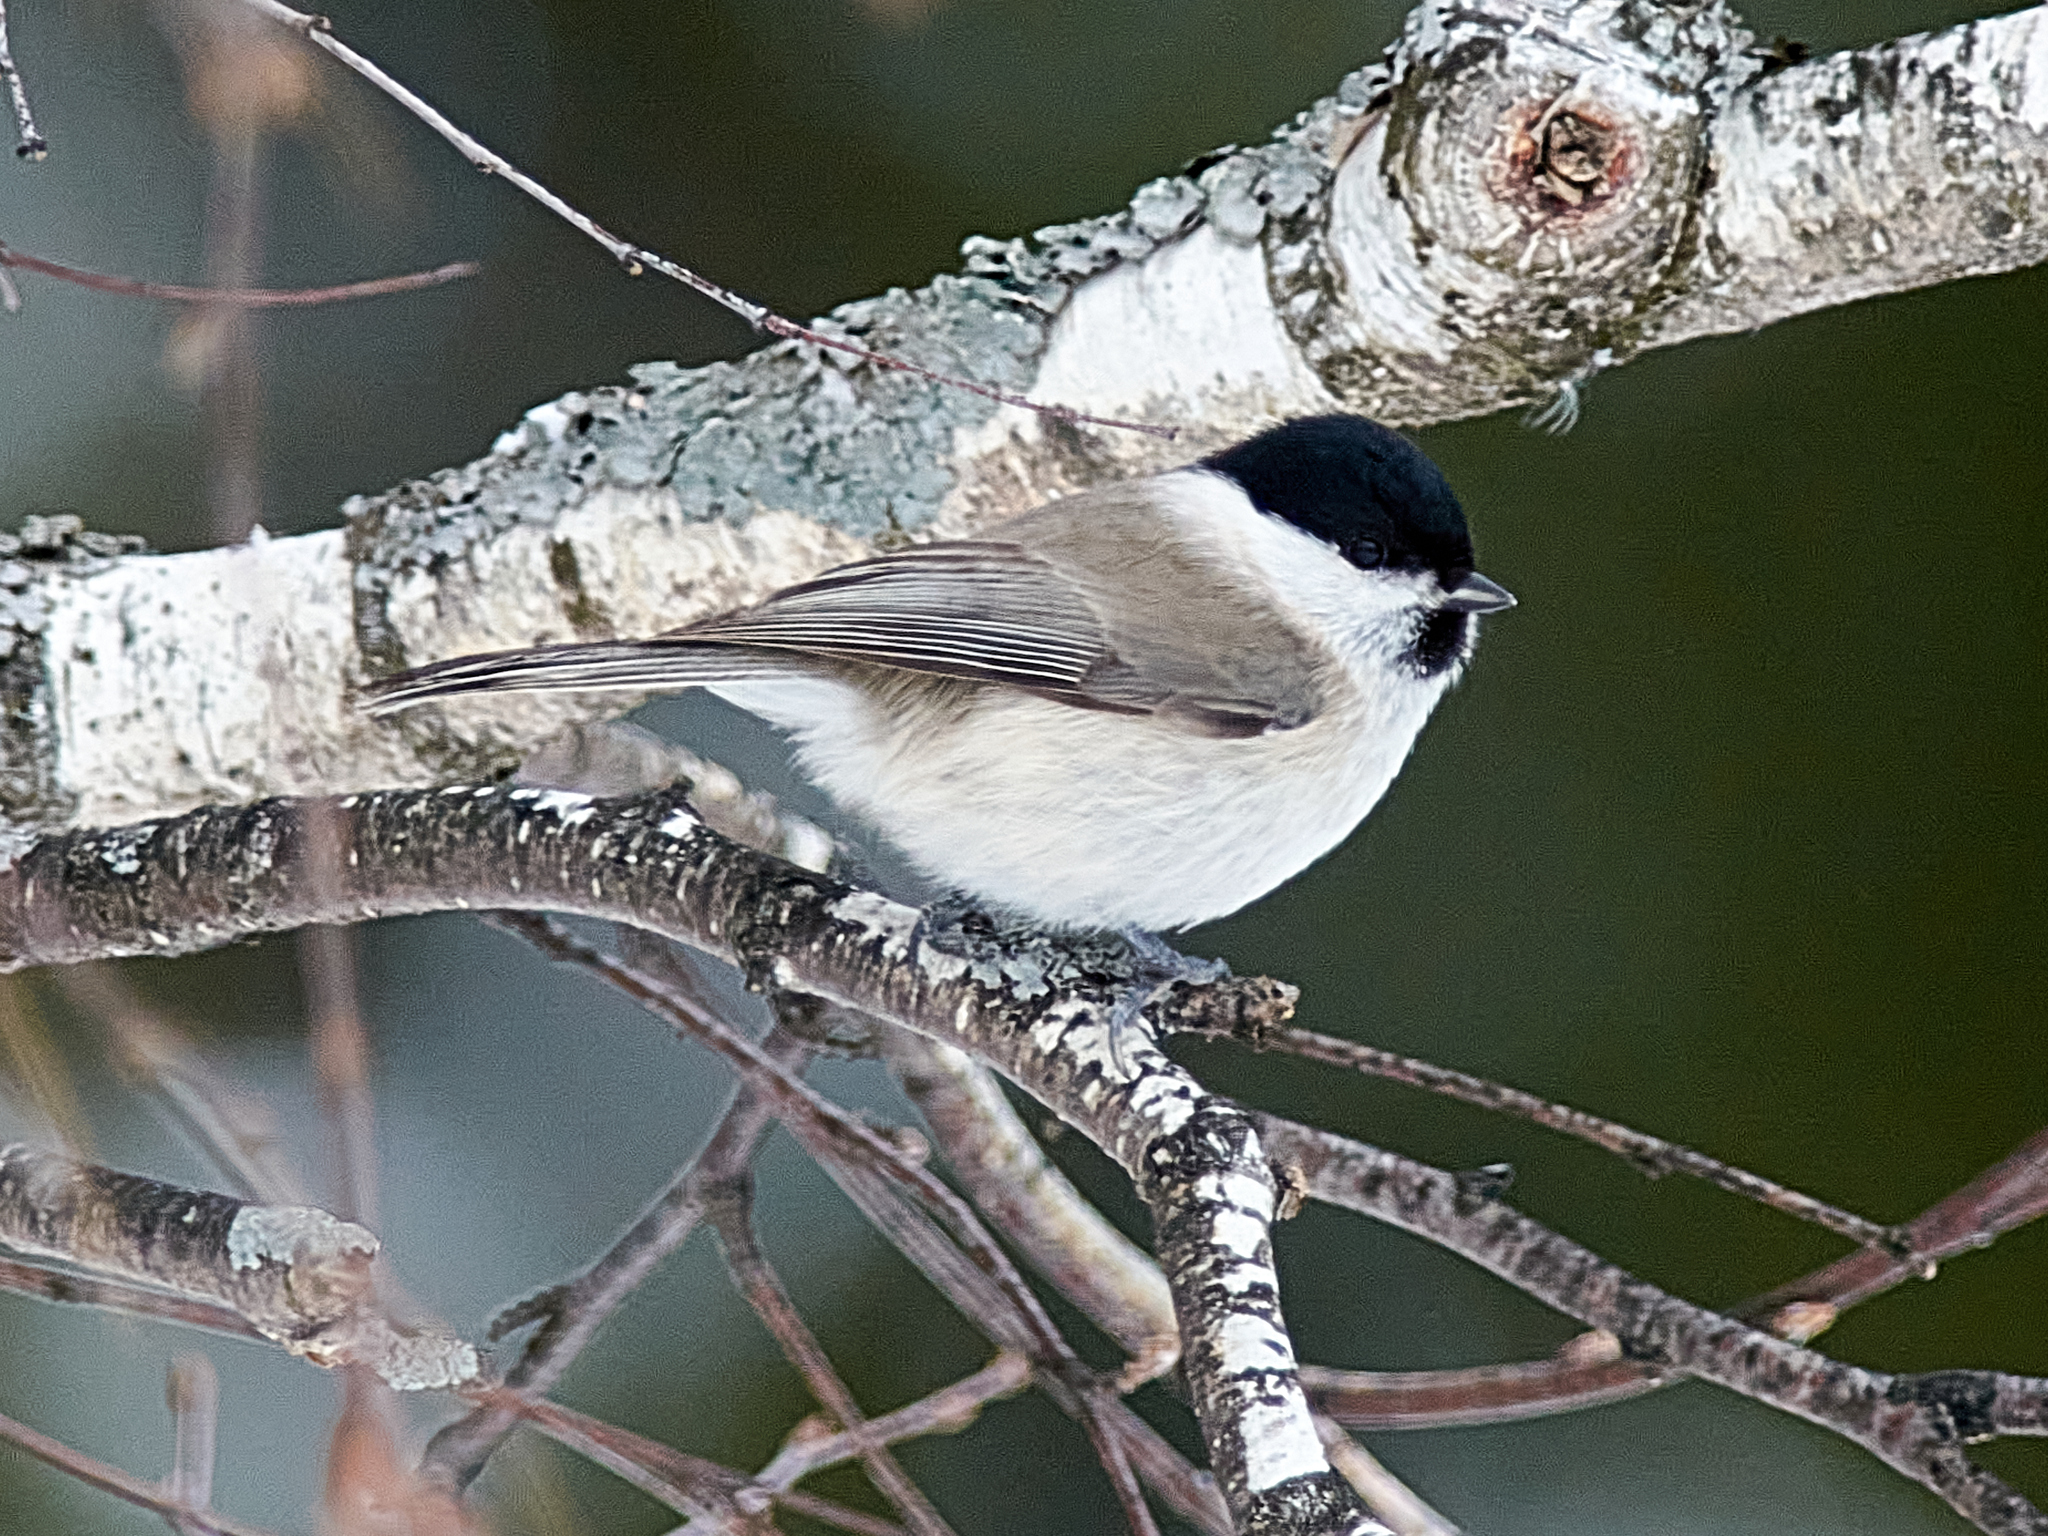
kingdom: Animalia
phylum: Chordata
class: Aves
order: Passeriformes
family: Paridae
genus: Poecile
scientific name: Poecile palustris
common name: Marsh tit
